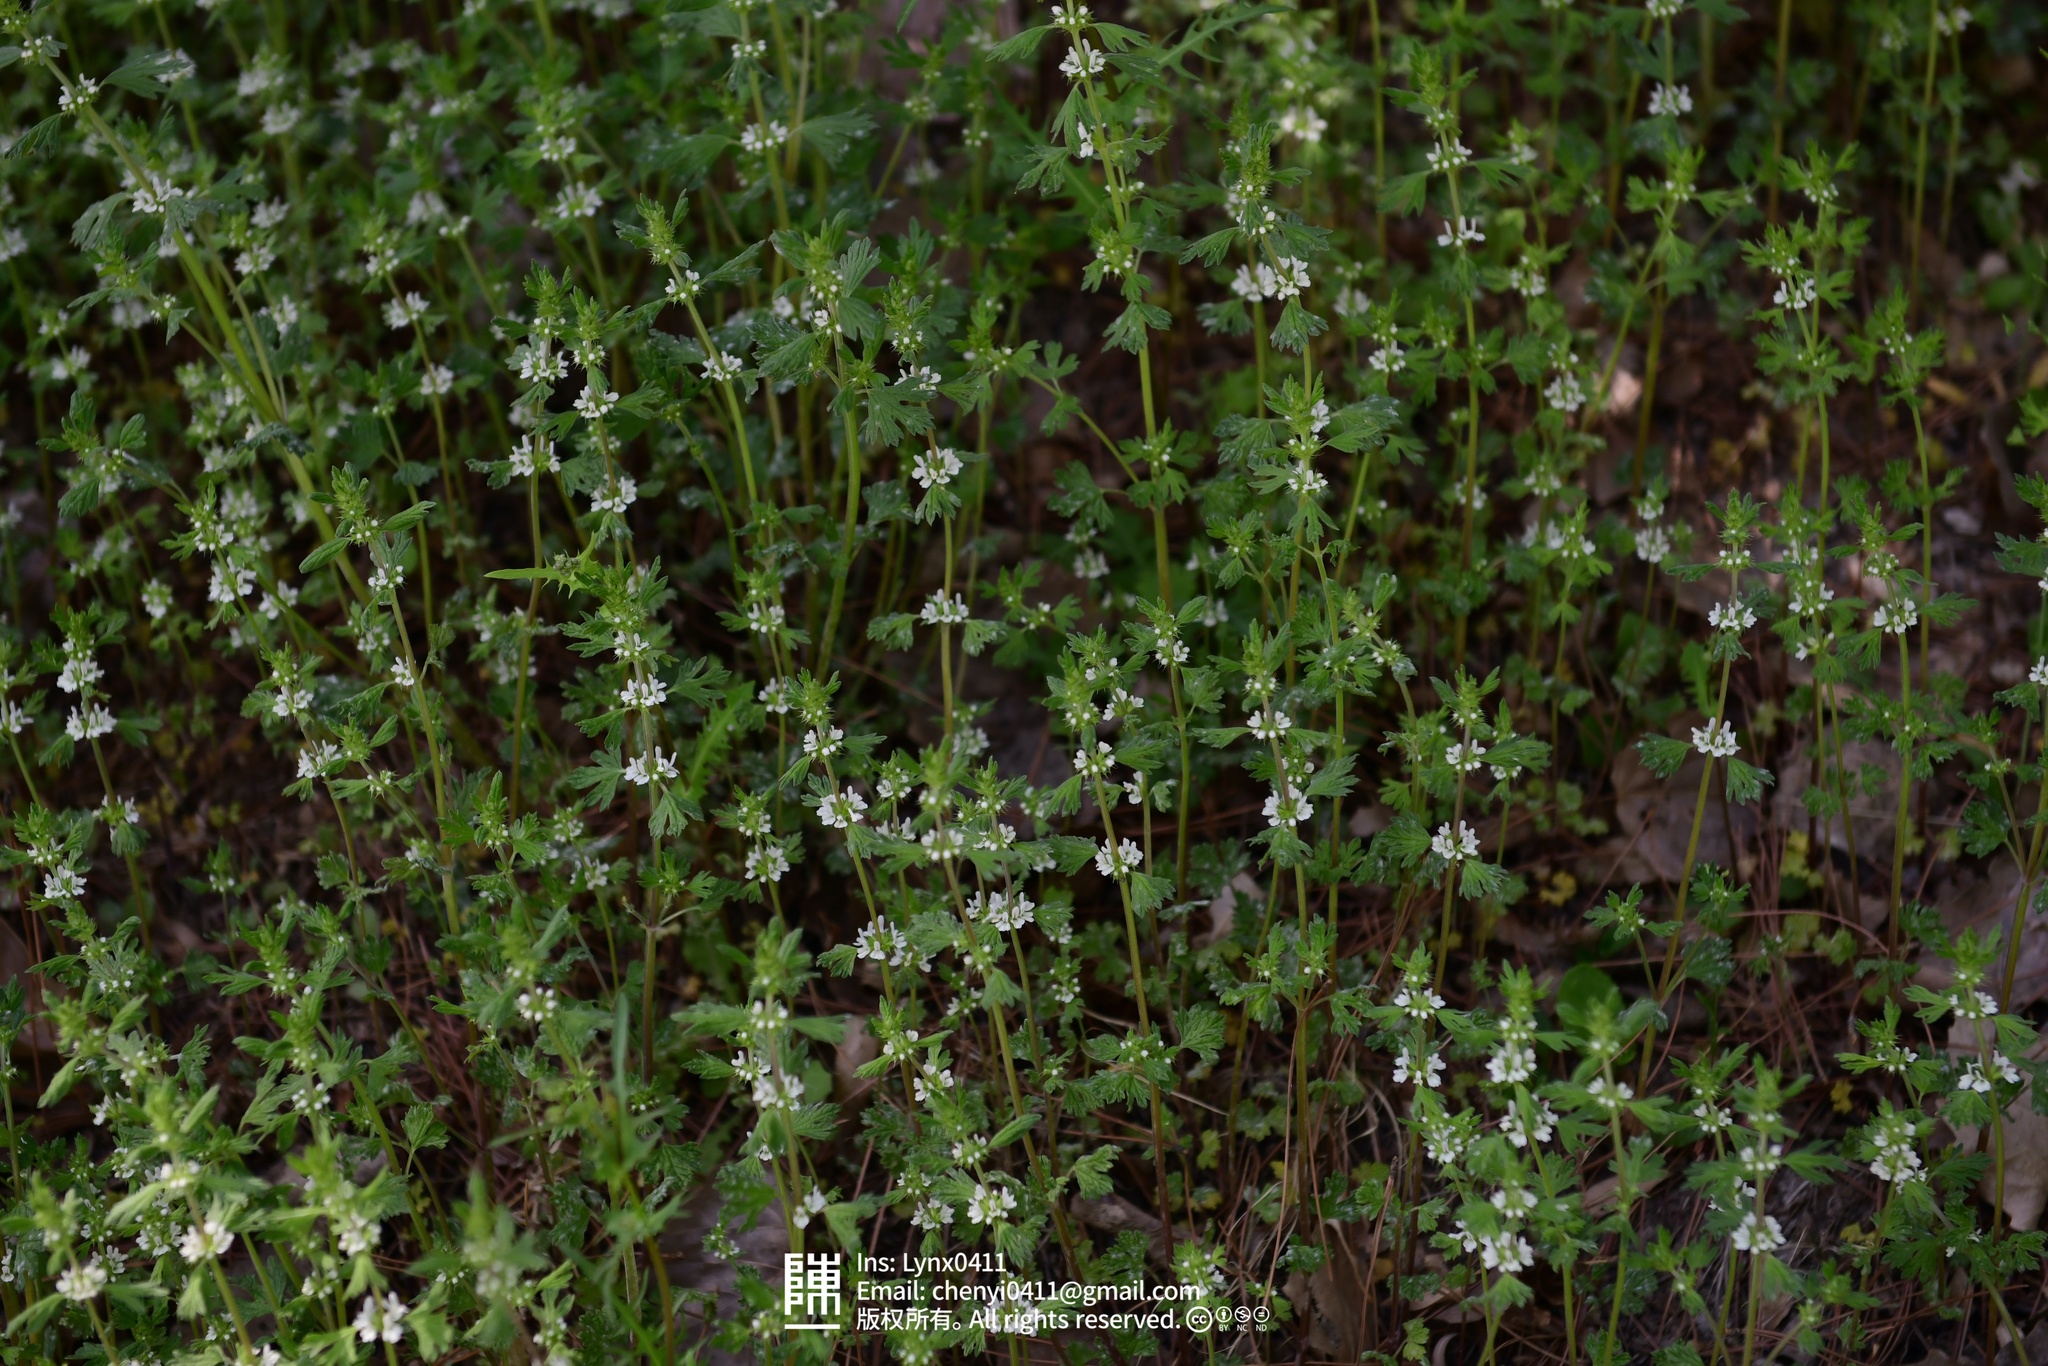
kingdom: Plantae
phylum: Tracheophyta
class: Magnoliopsida
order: Lamiales
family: Lamiaceae
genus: Lagopsis
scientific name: Lagopsis supina
